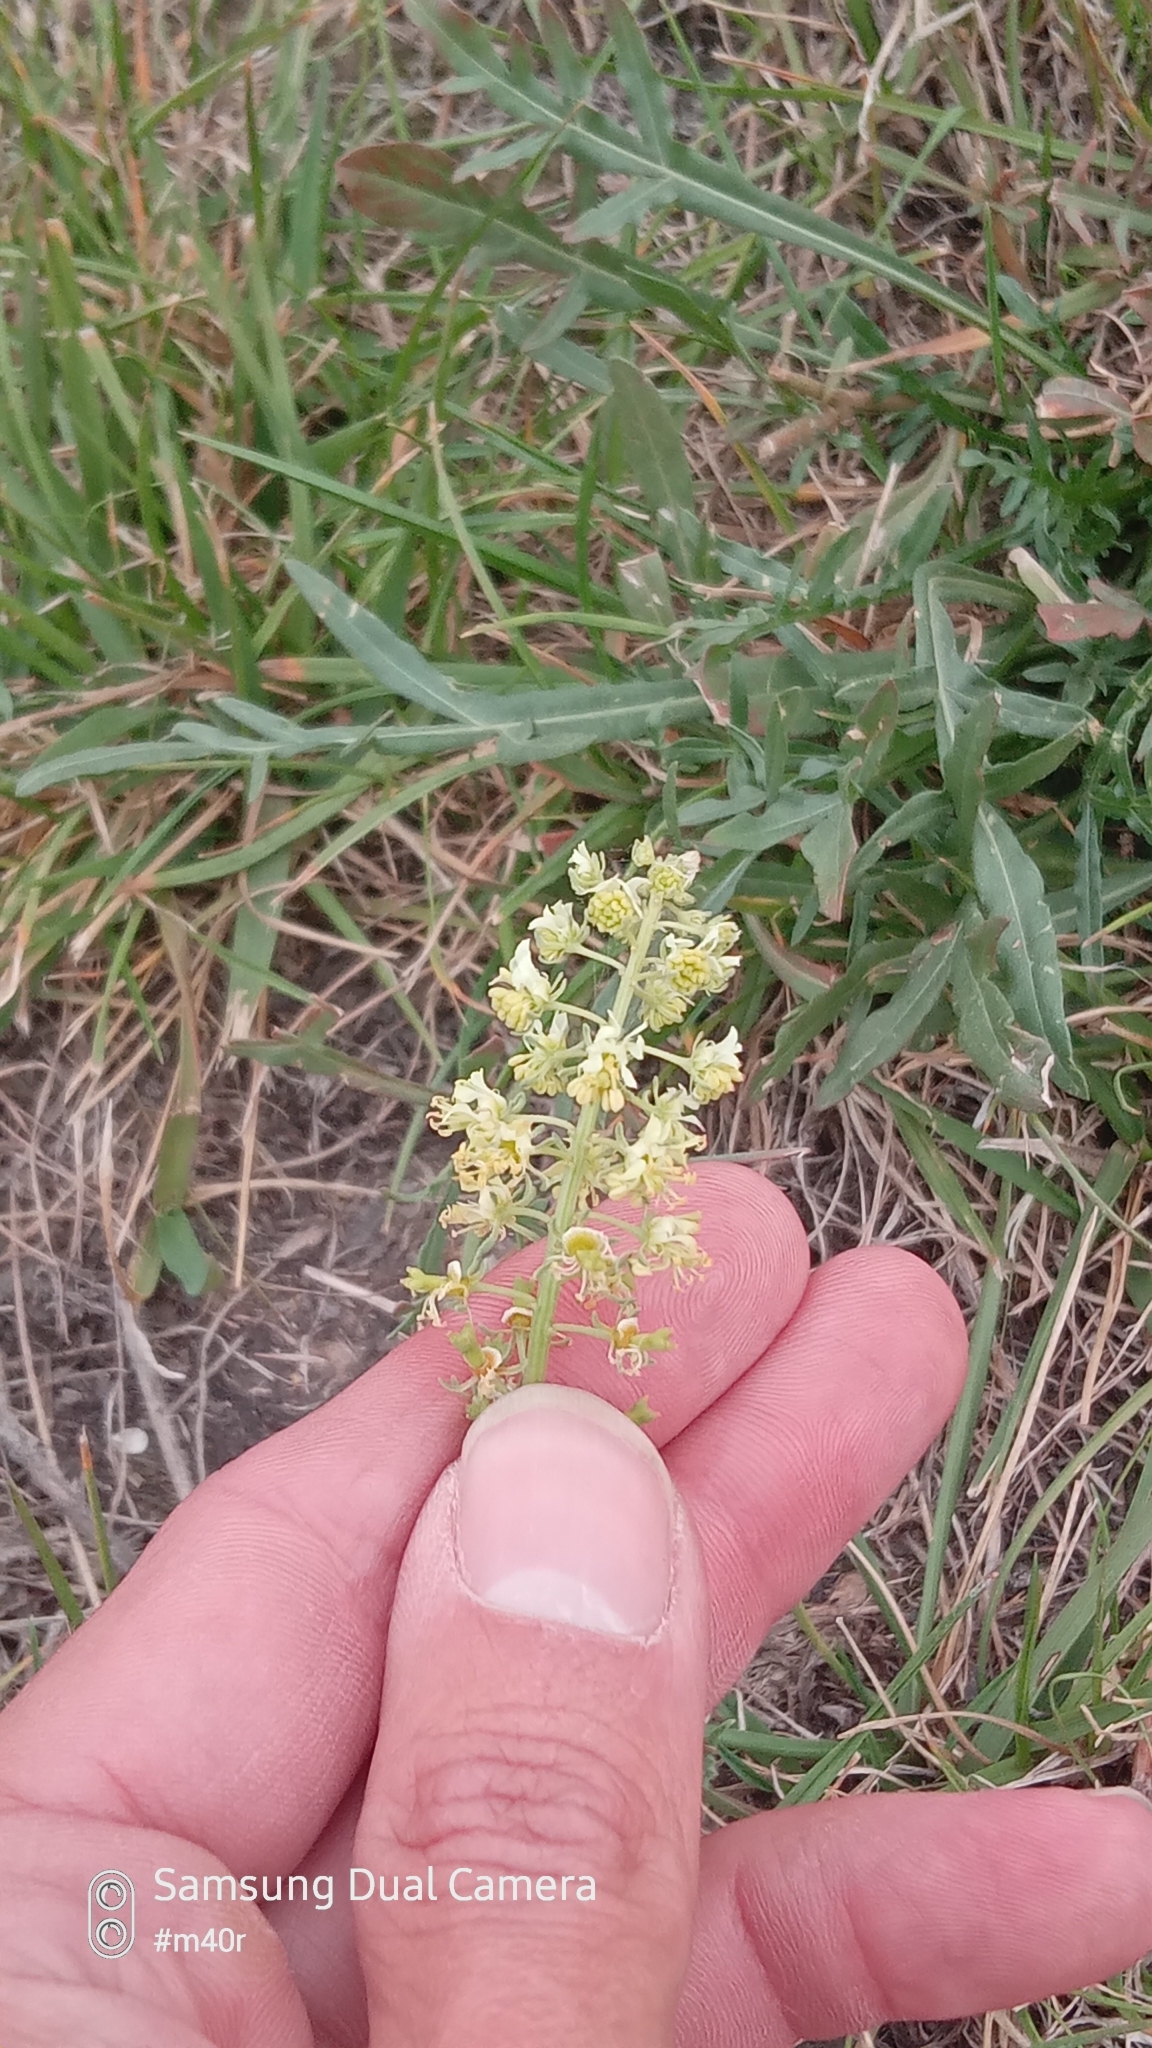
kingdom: Plantae
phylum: Tracheophyta
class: Magnoliopsida
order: Brassicales
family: Resedaceae
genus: Reseda
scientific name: Reseda lutea
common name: Wild mignonette
